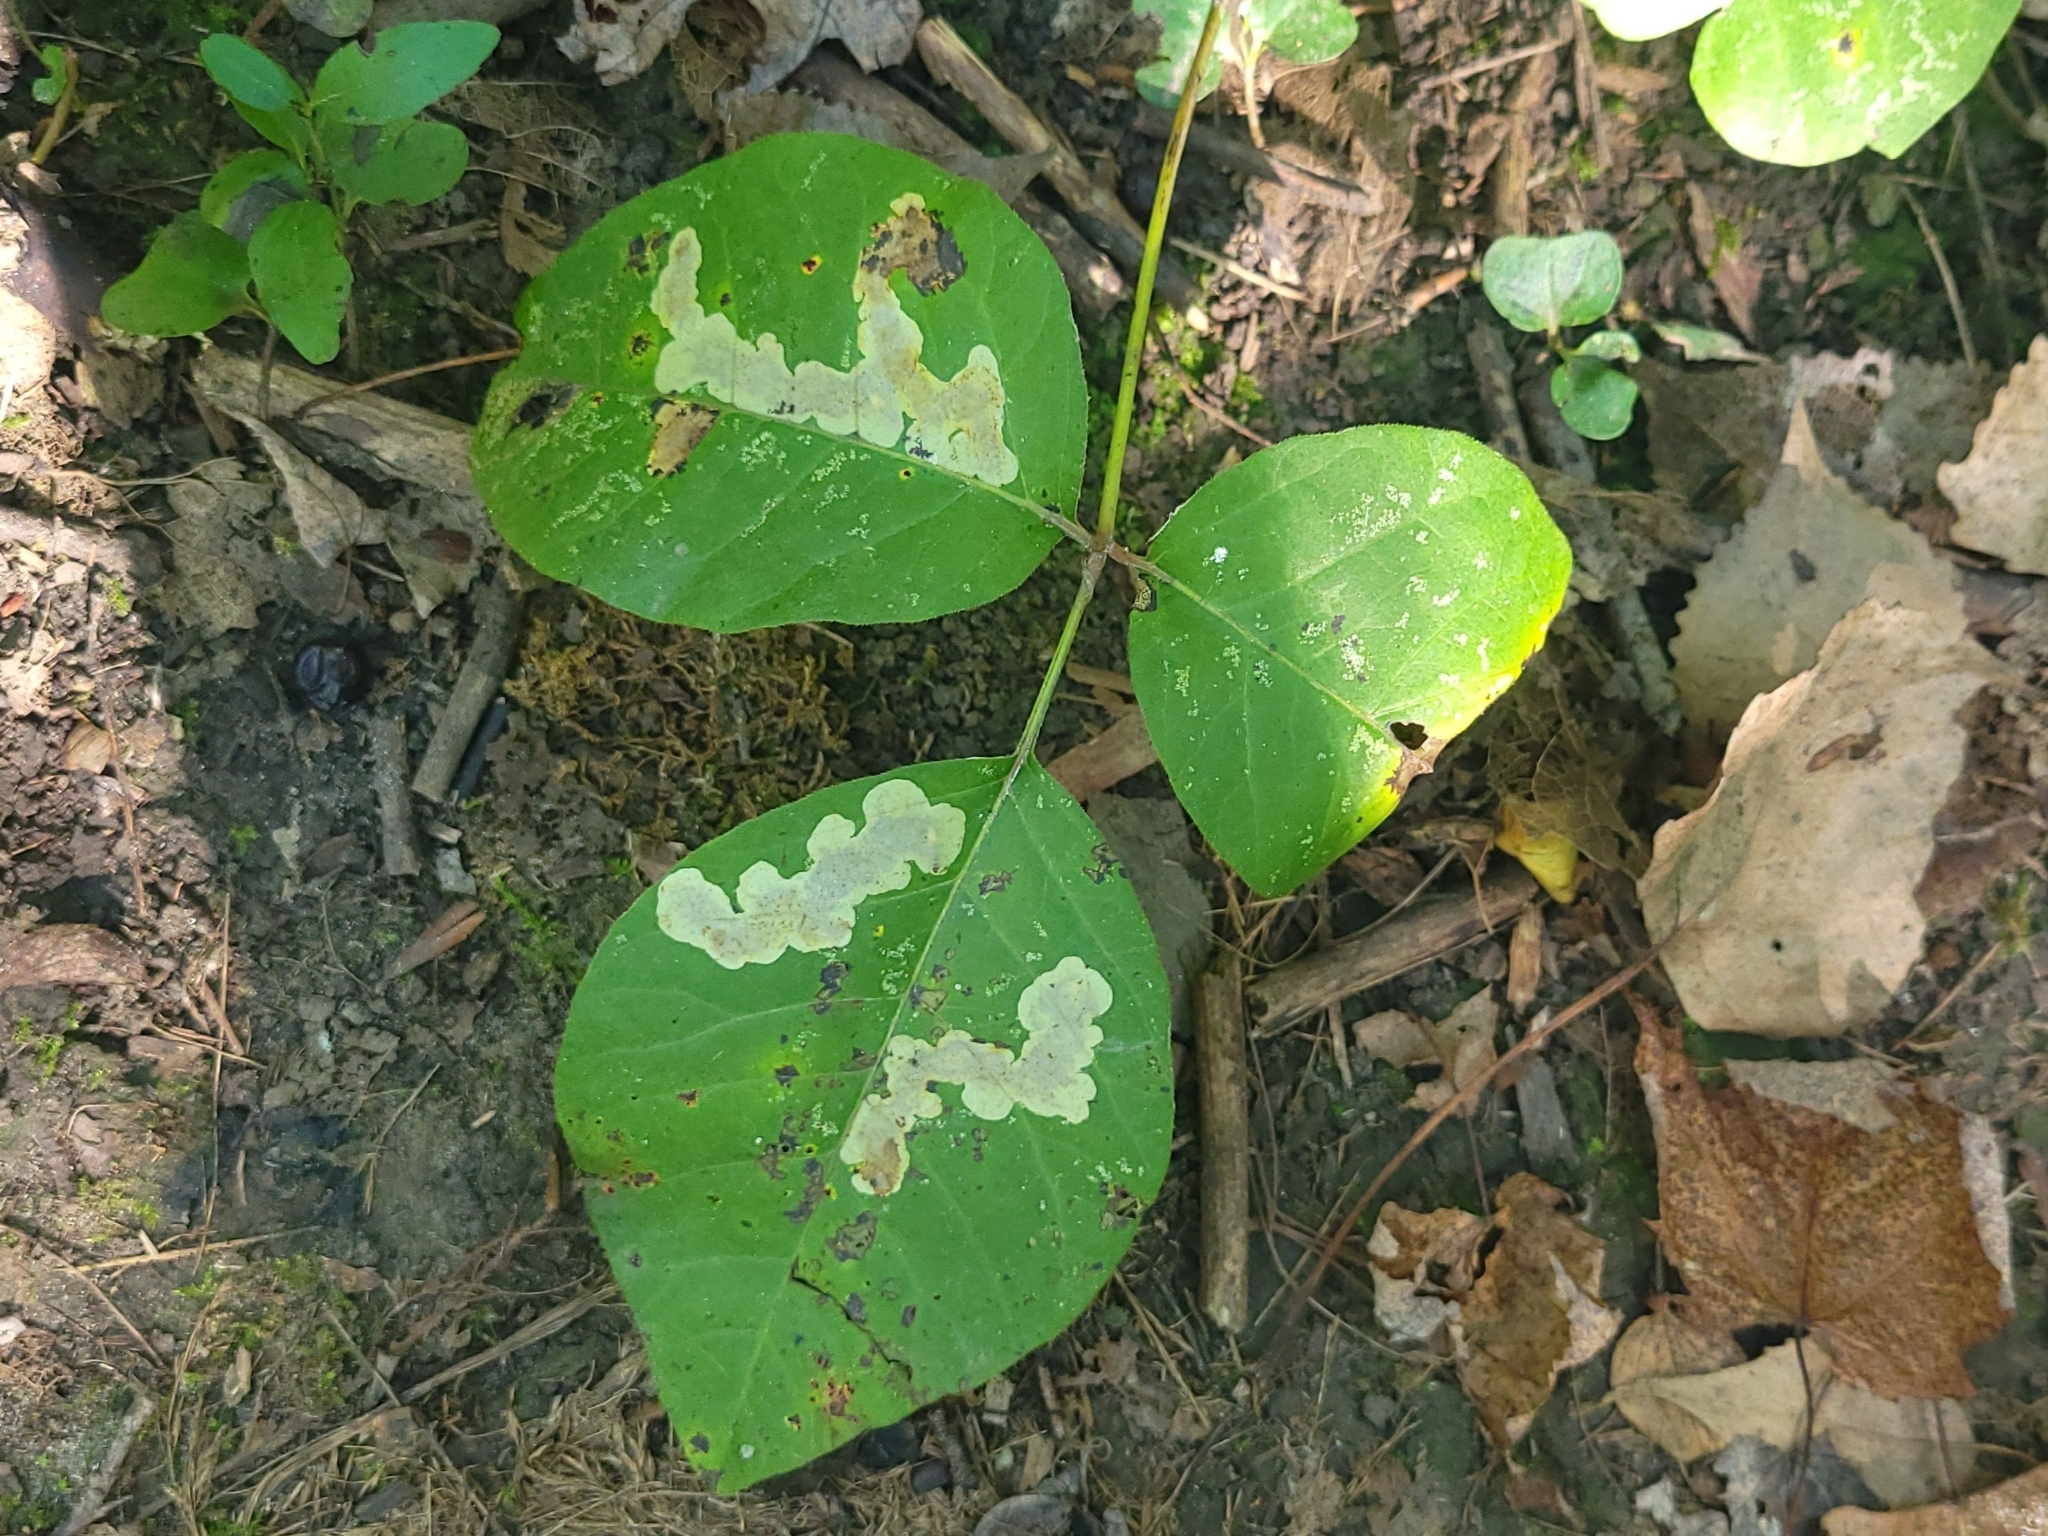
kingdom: Plantae
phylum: Tracheophyta
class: Magnoliopsida
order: Sapindales
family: Anacardiaceae
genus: Toxicodendron
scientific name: Toxicodendron radicans
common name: Poison ivy
